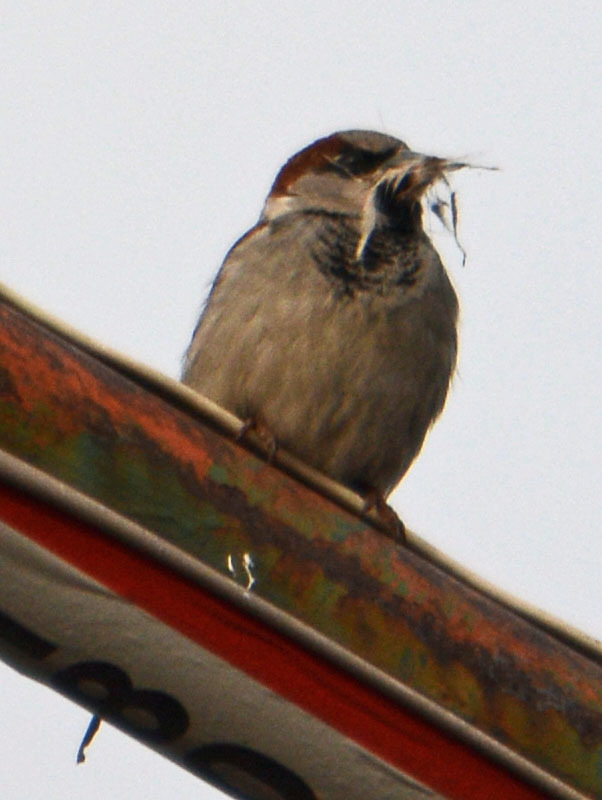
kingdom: Animalia
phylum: Chordata
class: Aves
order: Passeriformes
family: Passeridae
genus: Passer
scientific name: Passer domesticus
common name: House sparrow
